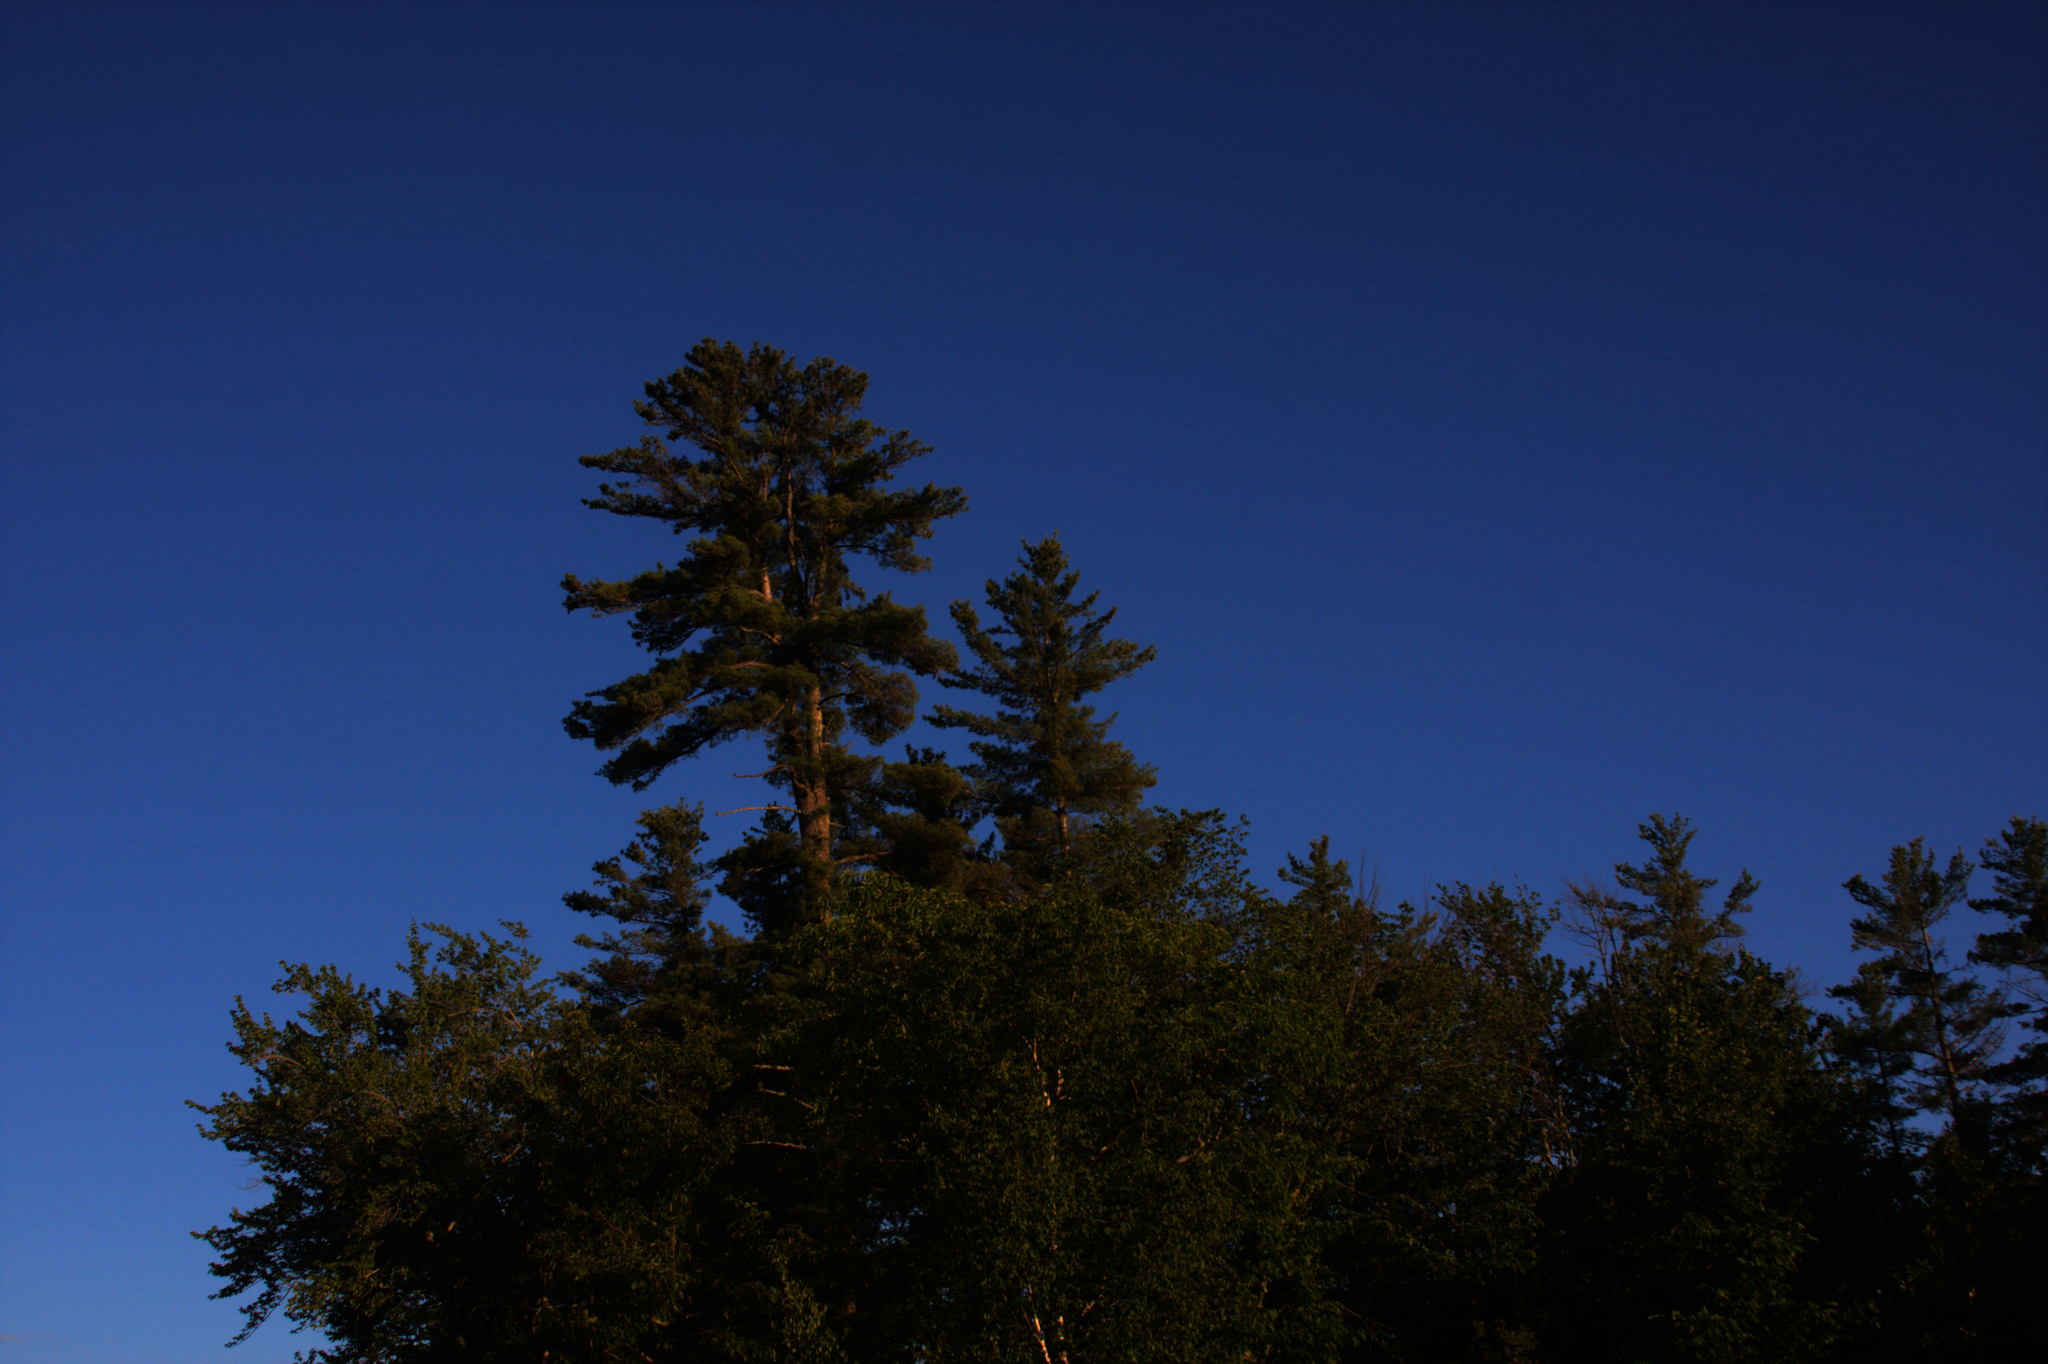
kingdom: Plantae
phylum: Tracheophyta
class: Pinopsida
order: Pinales
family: Pinaceae
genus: Pinus
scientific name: Pinus strobus
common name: Weymouth pine
